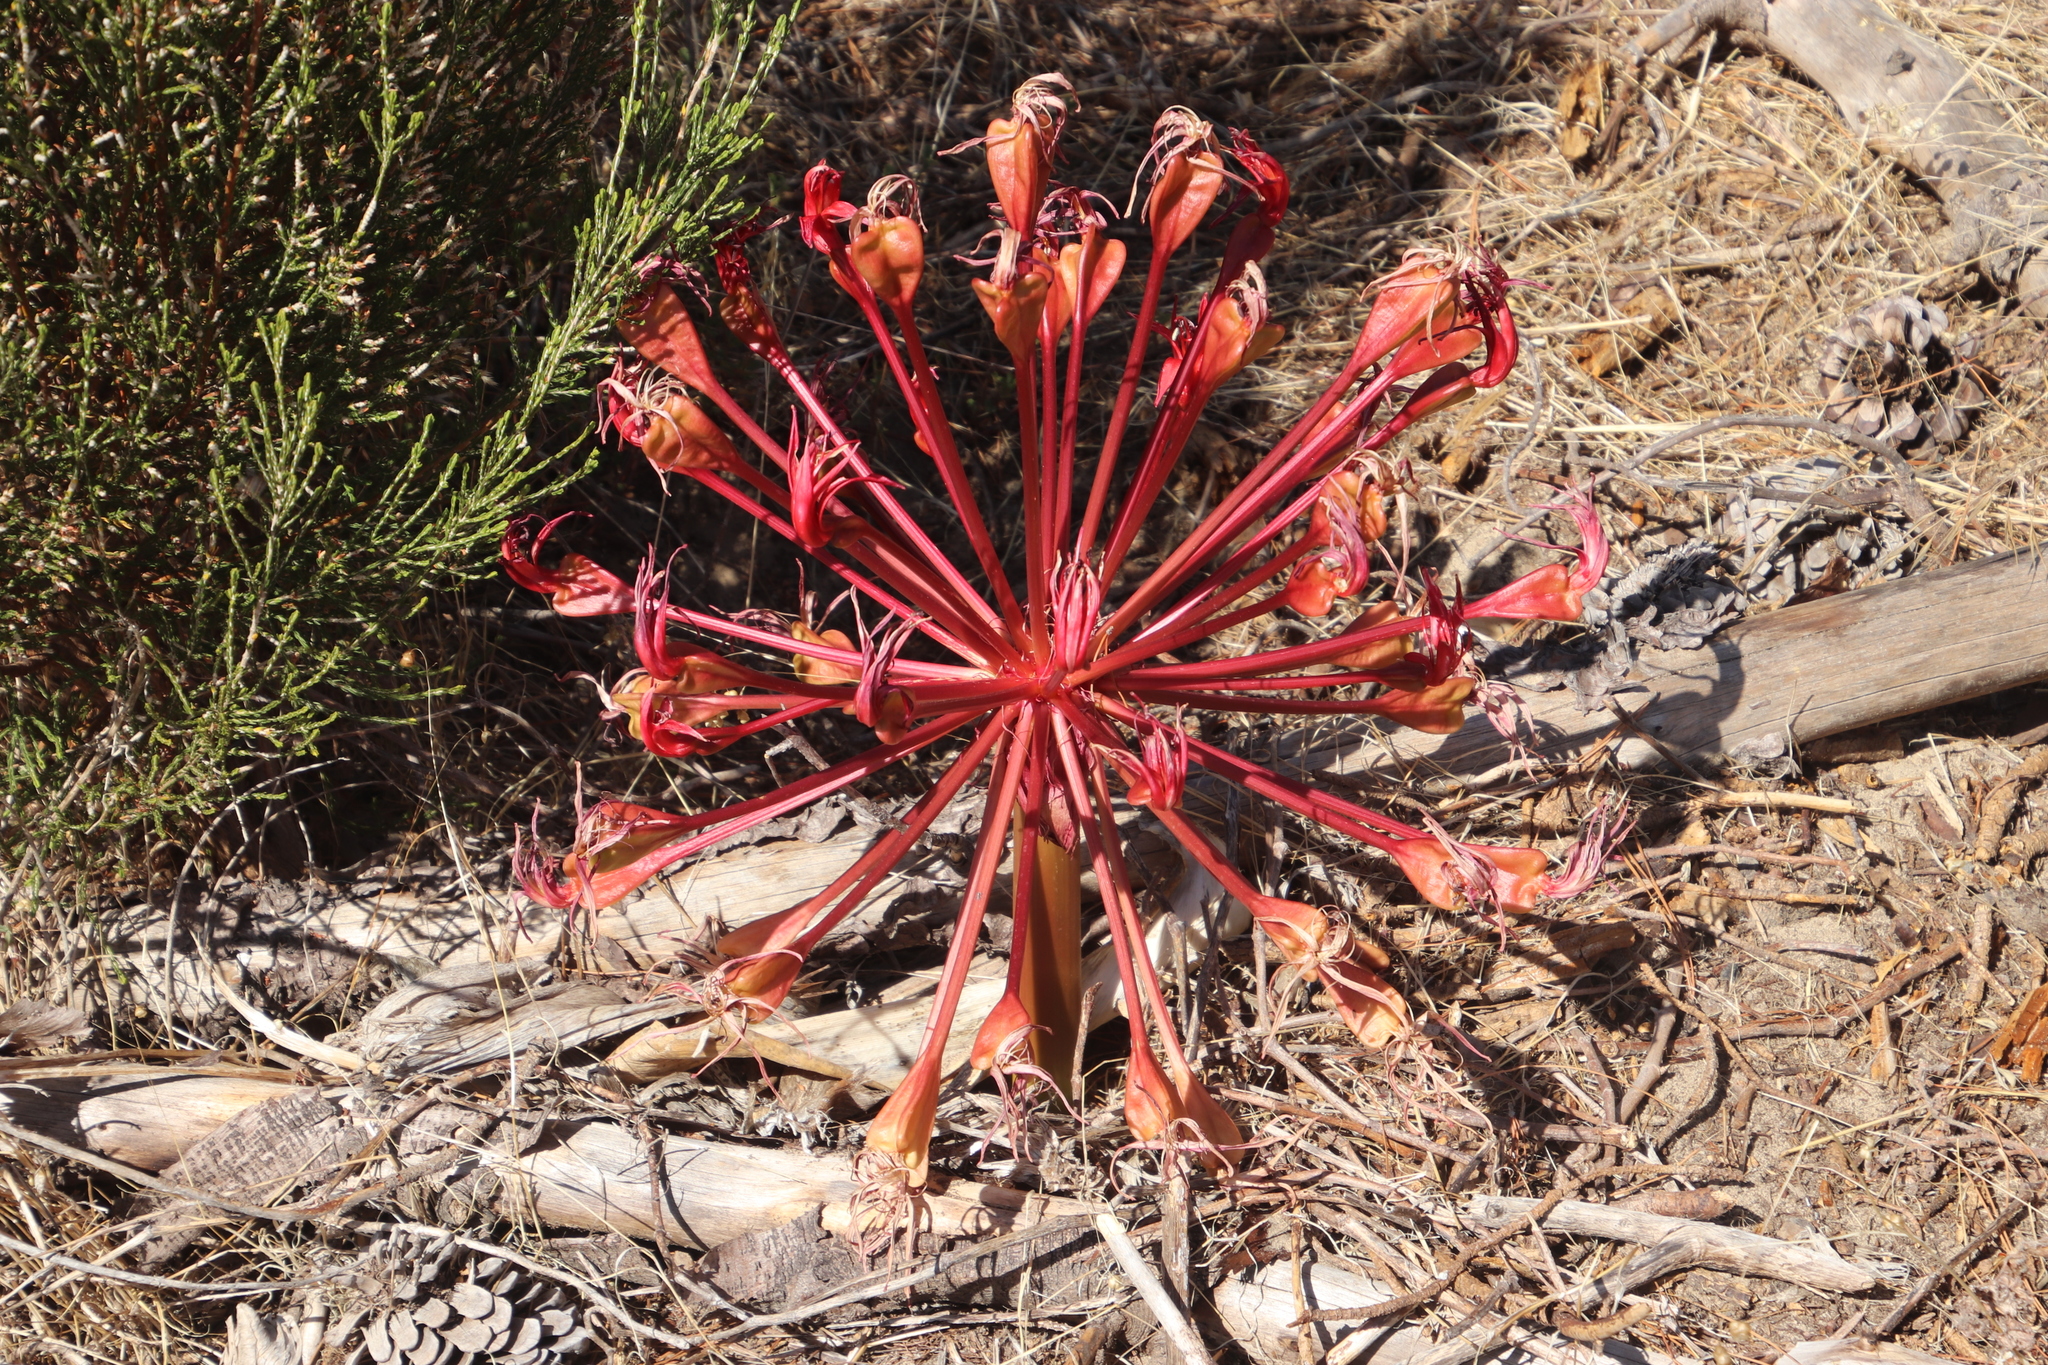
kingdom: Plantae
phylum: Tracheophyta
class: Liliopsida
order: Asparagales
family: Amaryllidaceae
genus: Brunsvigia
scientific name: Brunsvigia orientalis
